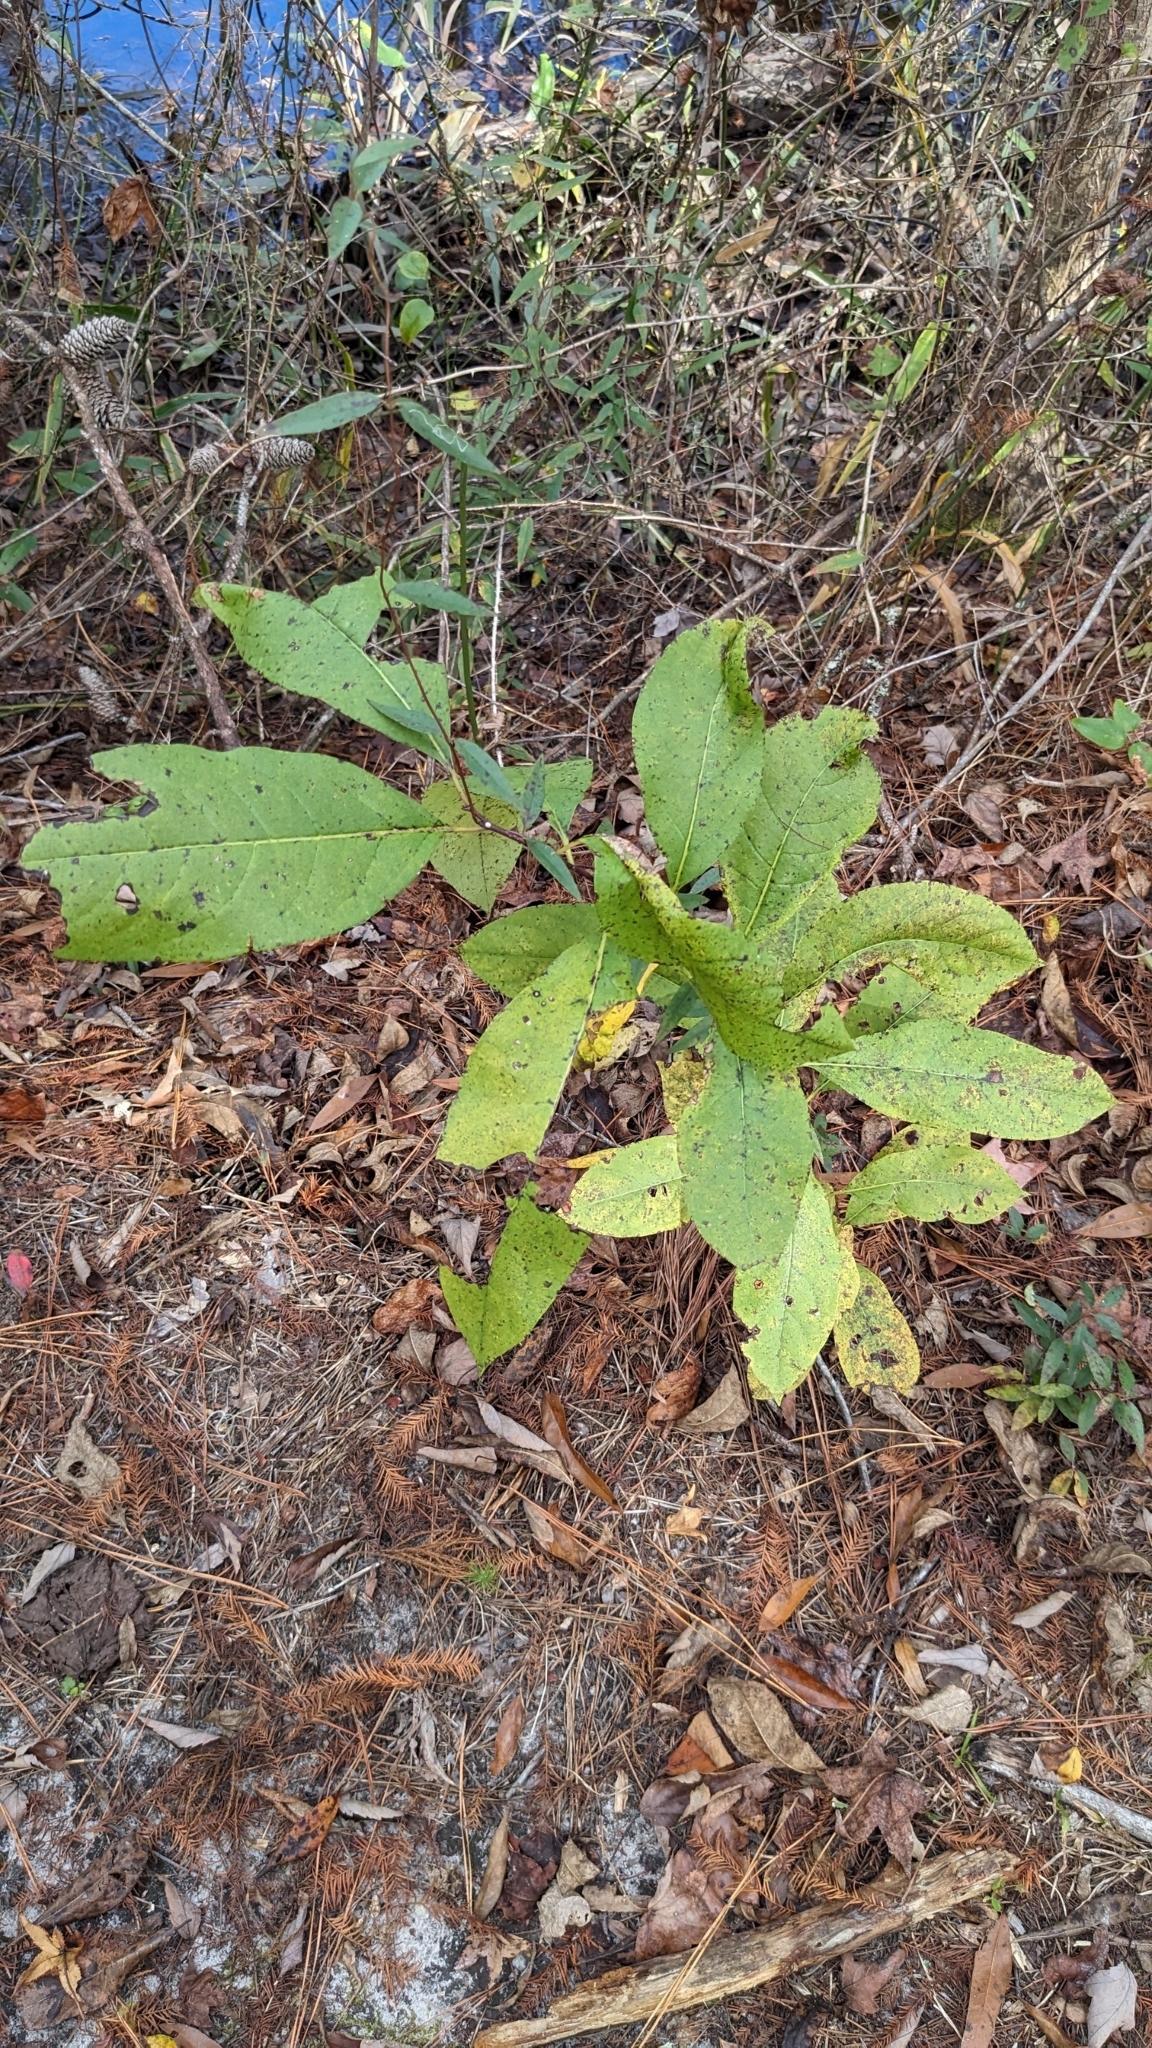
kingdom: Plantae
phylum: Tracheophyta
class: Magnoliopsida
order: Ericales
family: Ebenaceae
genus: Diospyros
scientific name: Diospyros virginiana
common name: Persimmon
